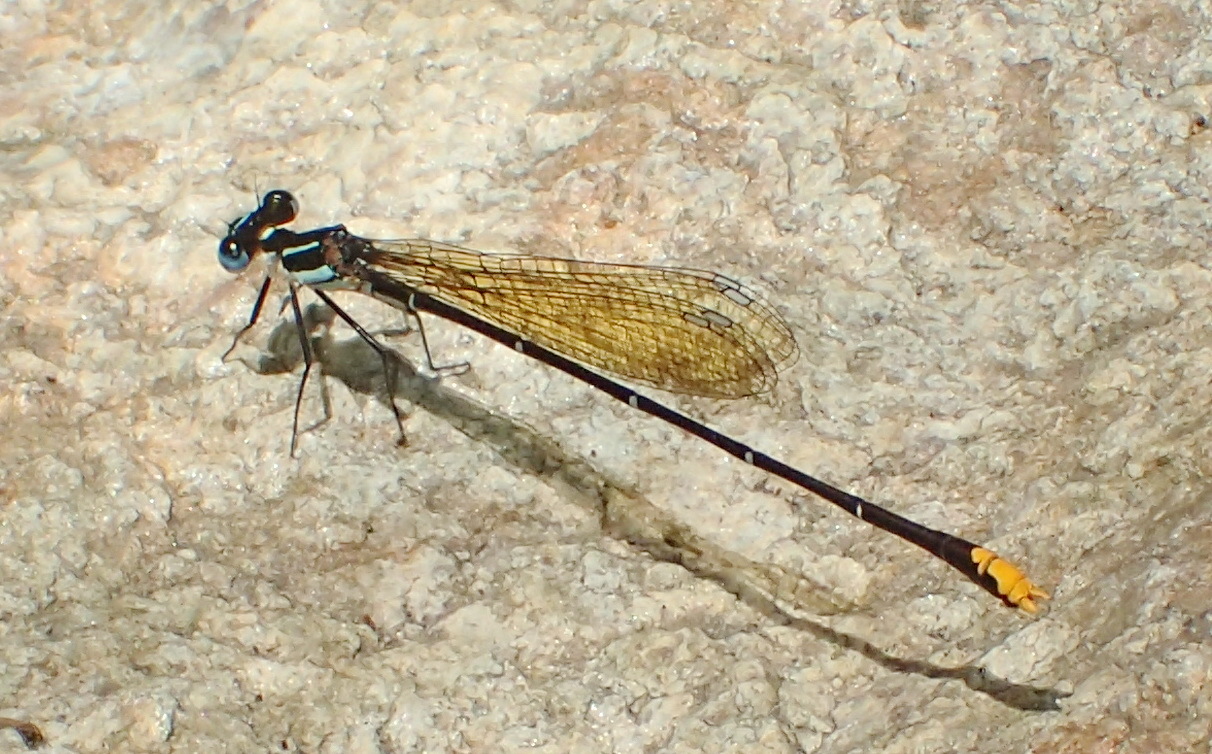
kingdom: Animalia
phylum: Arthropoda
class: Insecta
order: Odonata
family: Platycnemididae
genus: Allocnemis
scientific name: Allocnemis leucosticta
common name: Goldtail
